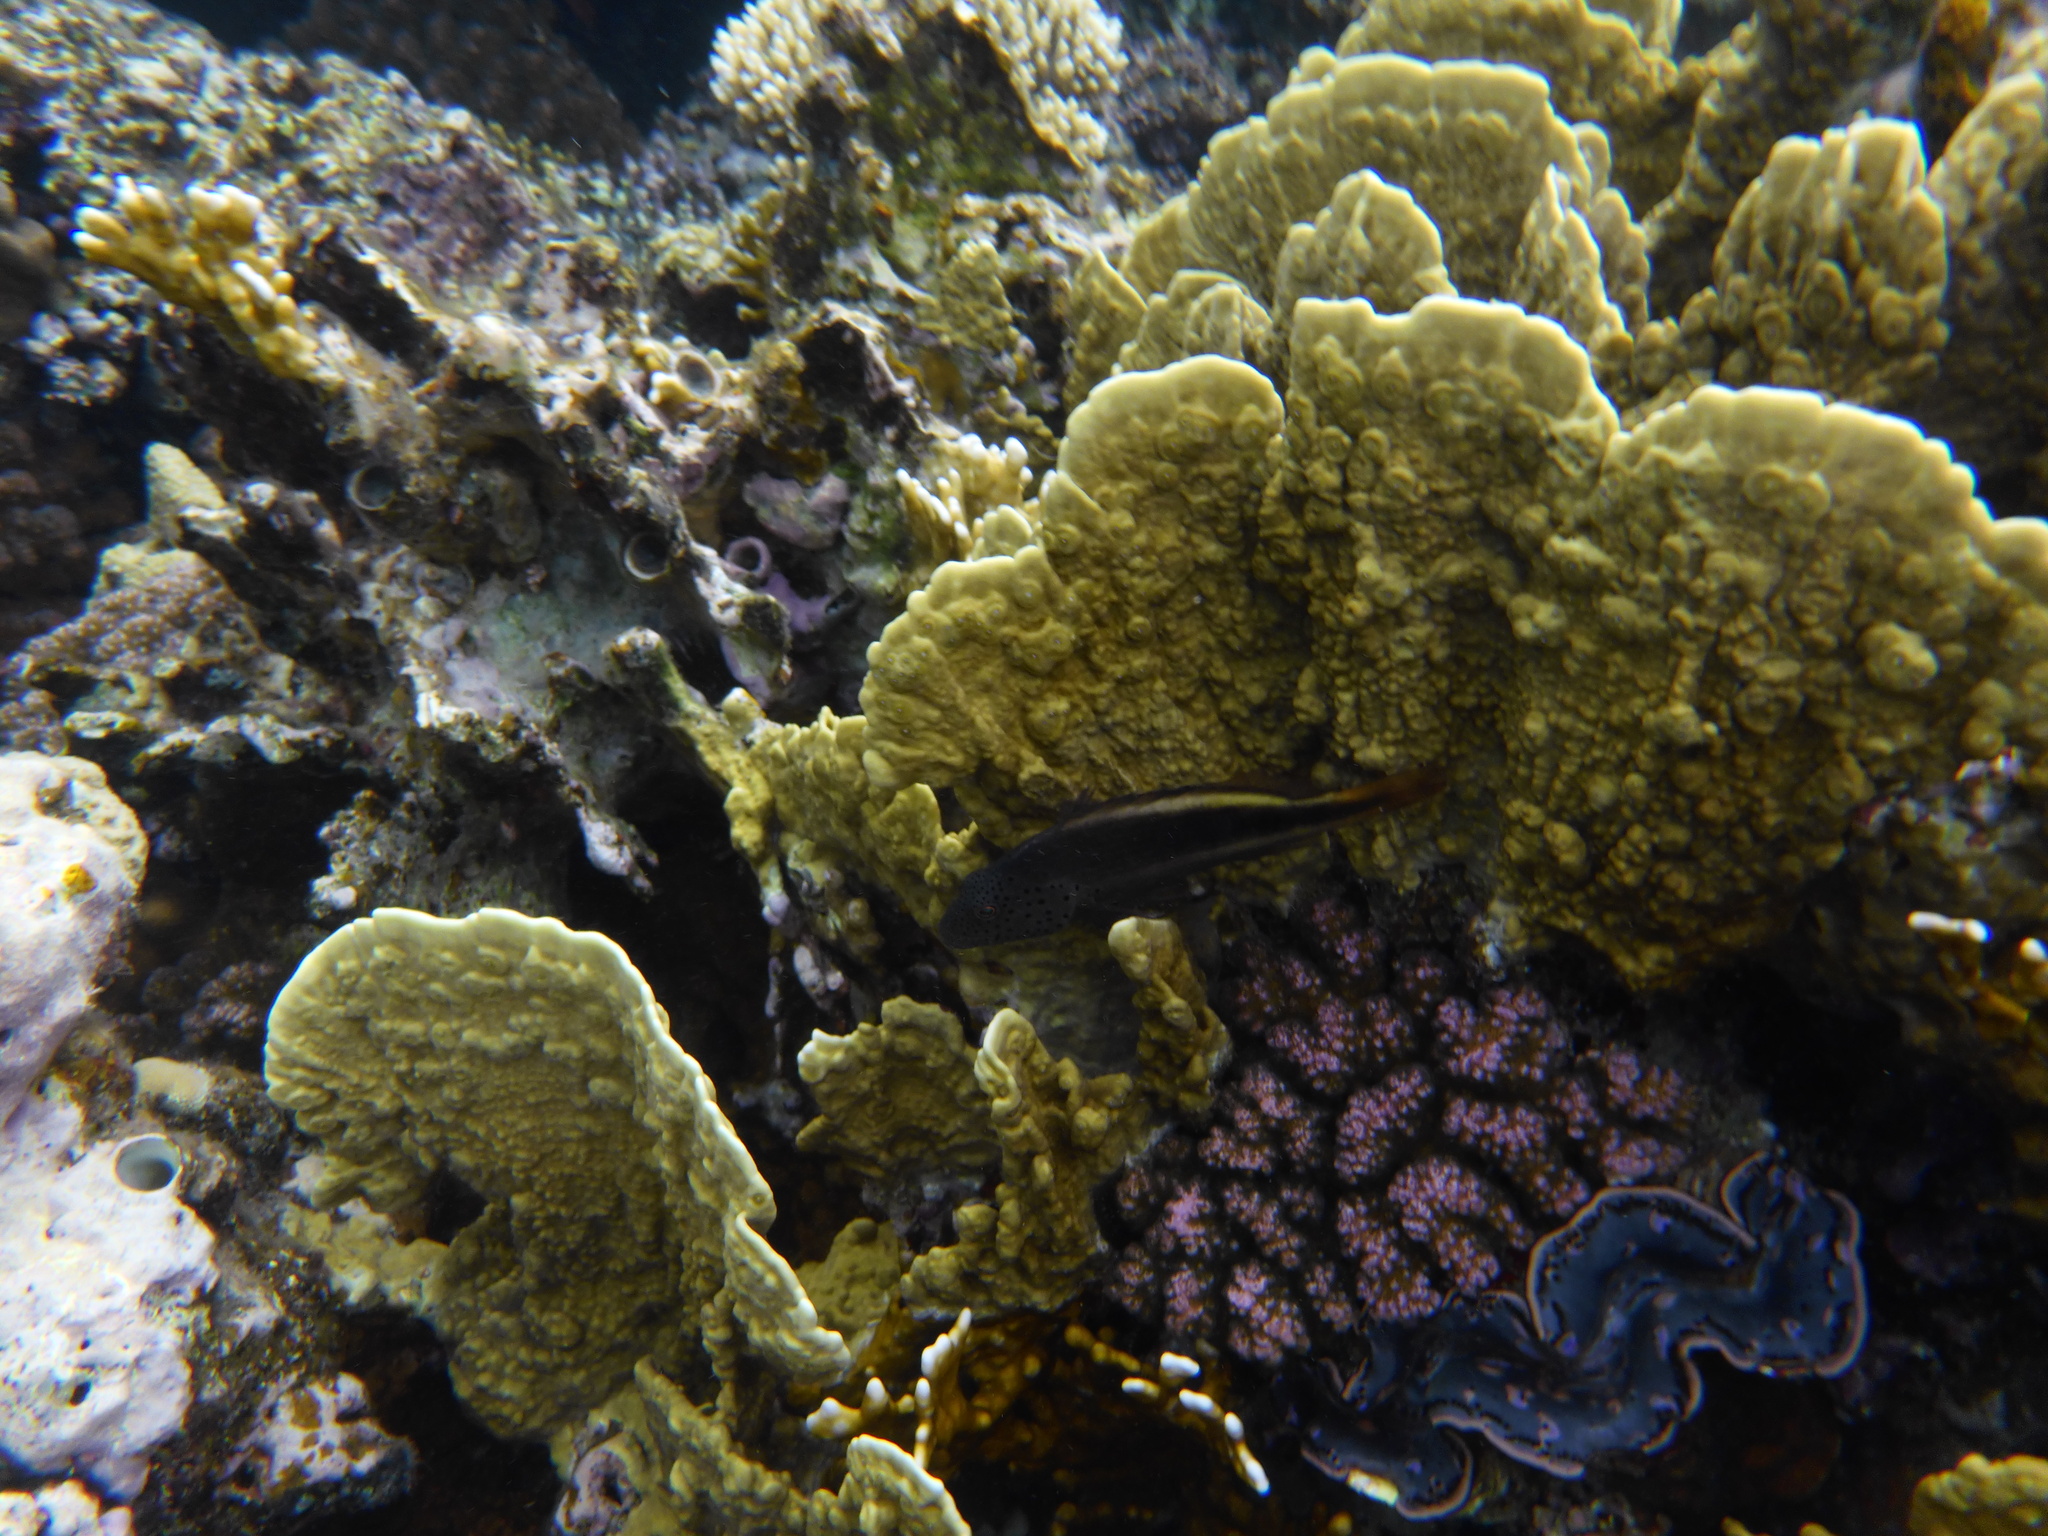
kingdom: Animalia
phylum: Chordata
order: Perciformes
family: Cirrhitidae
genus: Paracirrhites
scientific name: Paracirrhites forsteri
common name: Freckled hawkfish
